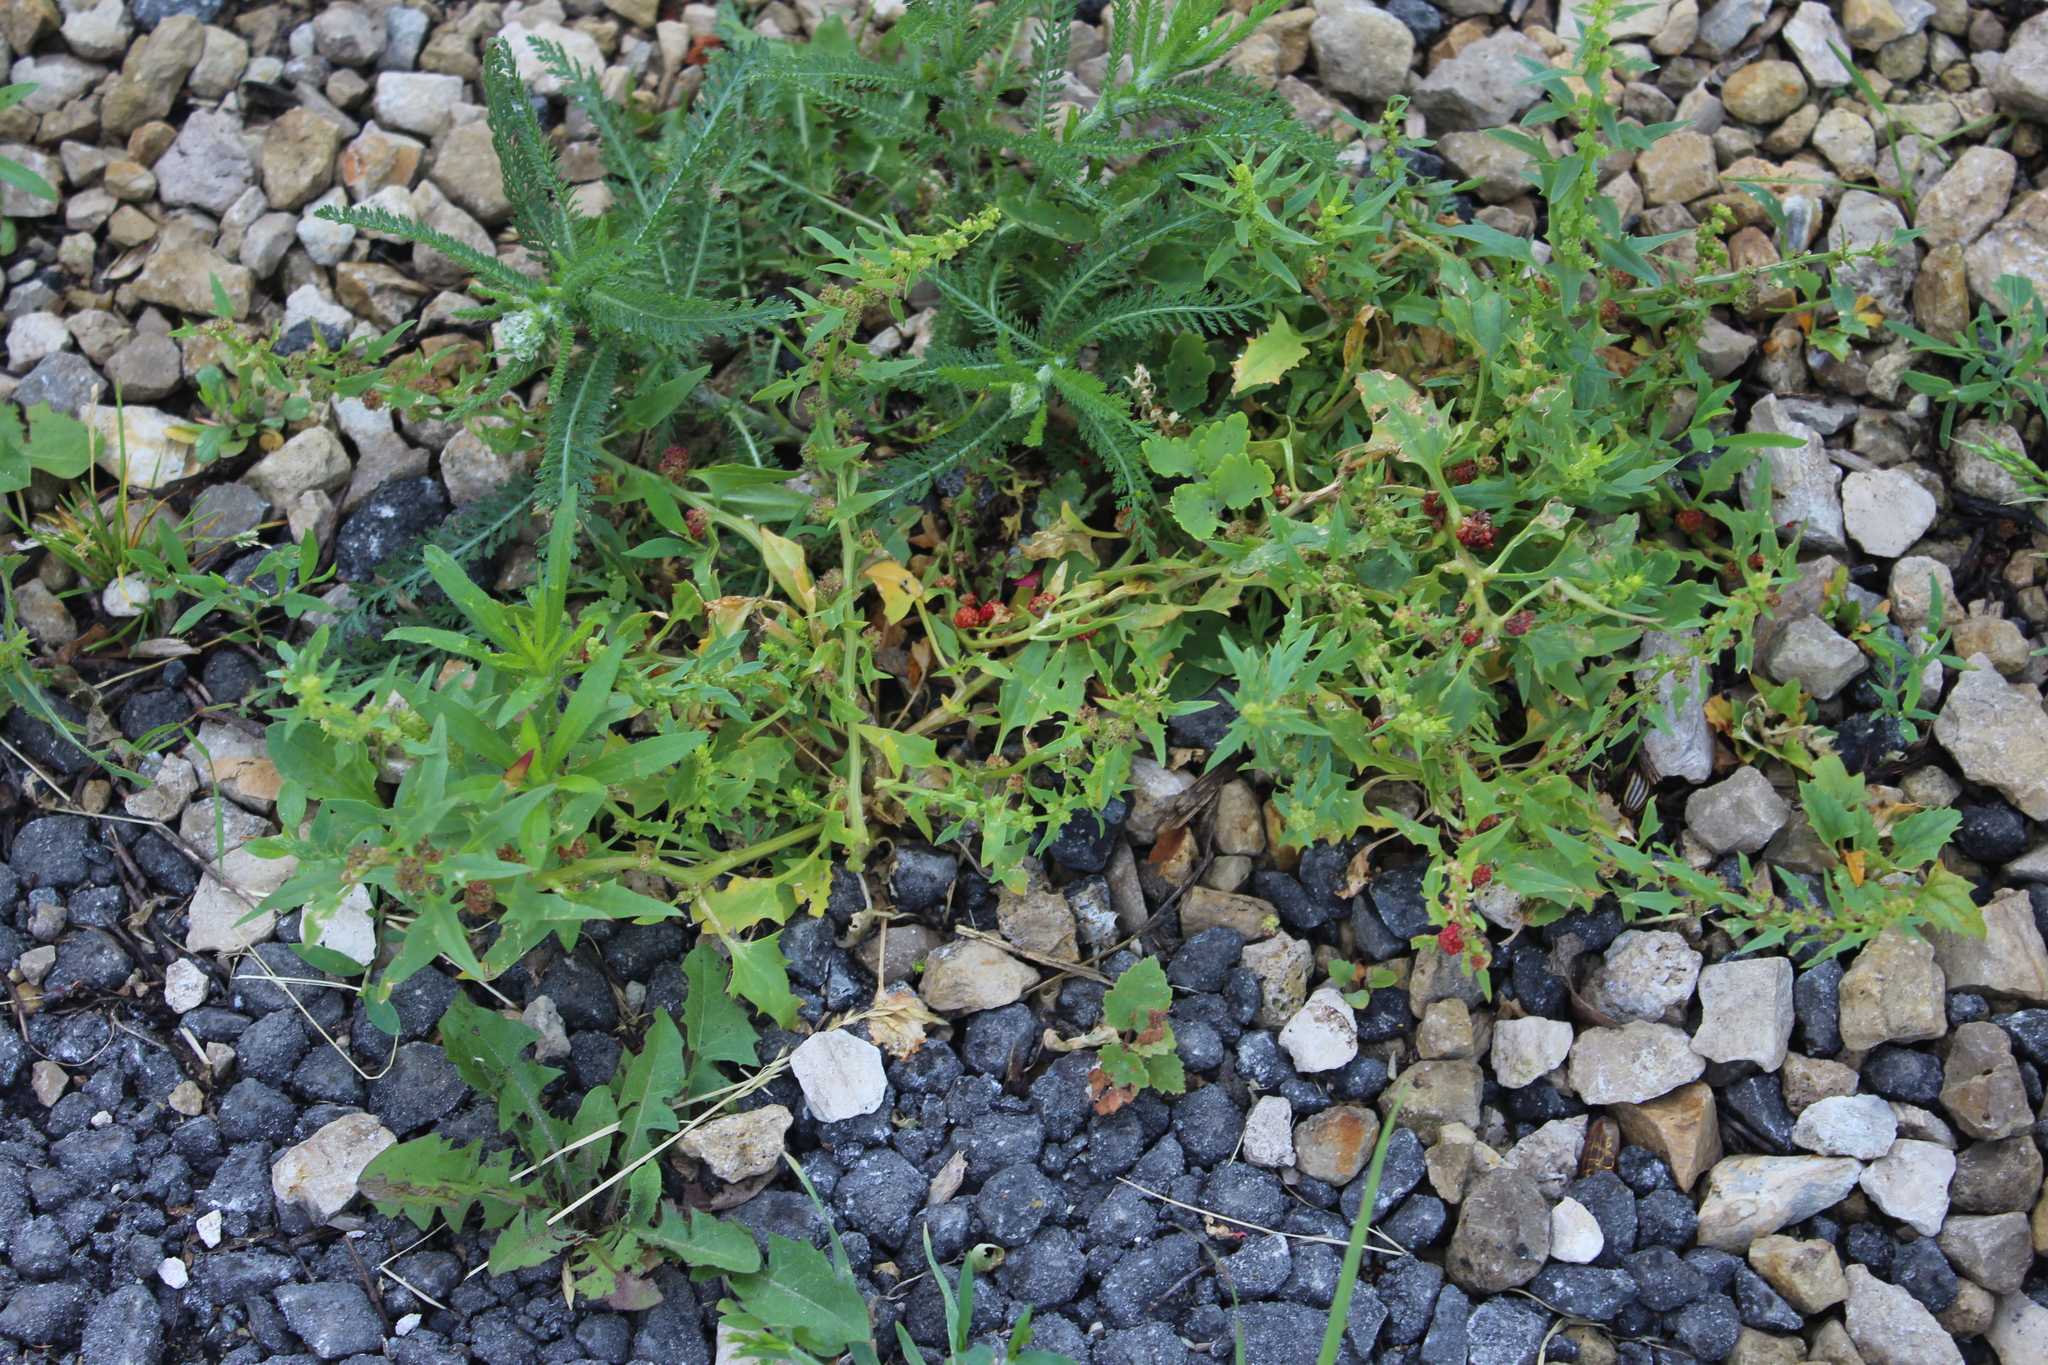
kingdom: Plantae
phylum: Tracheophyta
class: Magnoliopsida
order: Caryophyllales
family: Amaranthaceae
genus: Blitum
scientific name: Blitum virgatum
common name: Strawberry goosefoot
